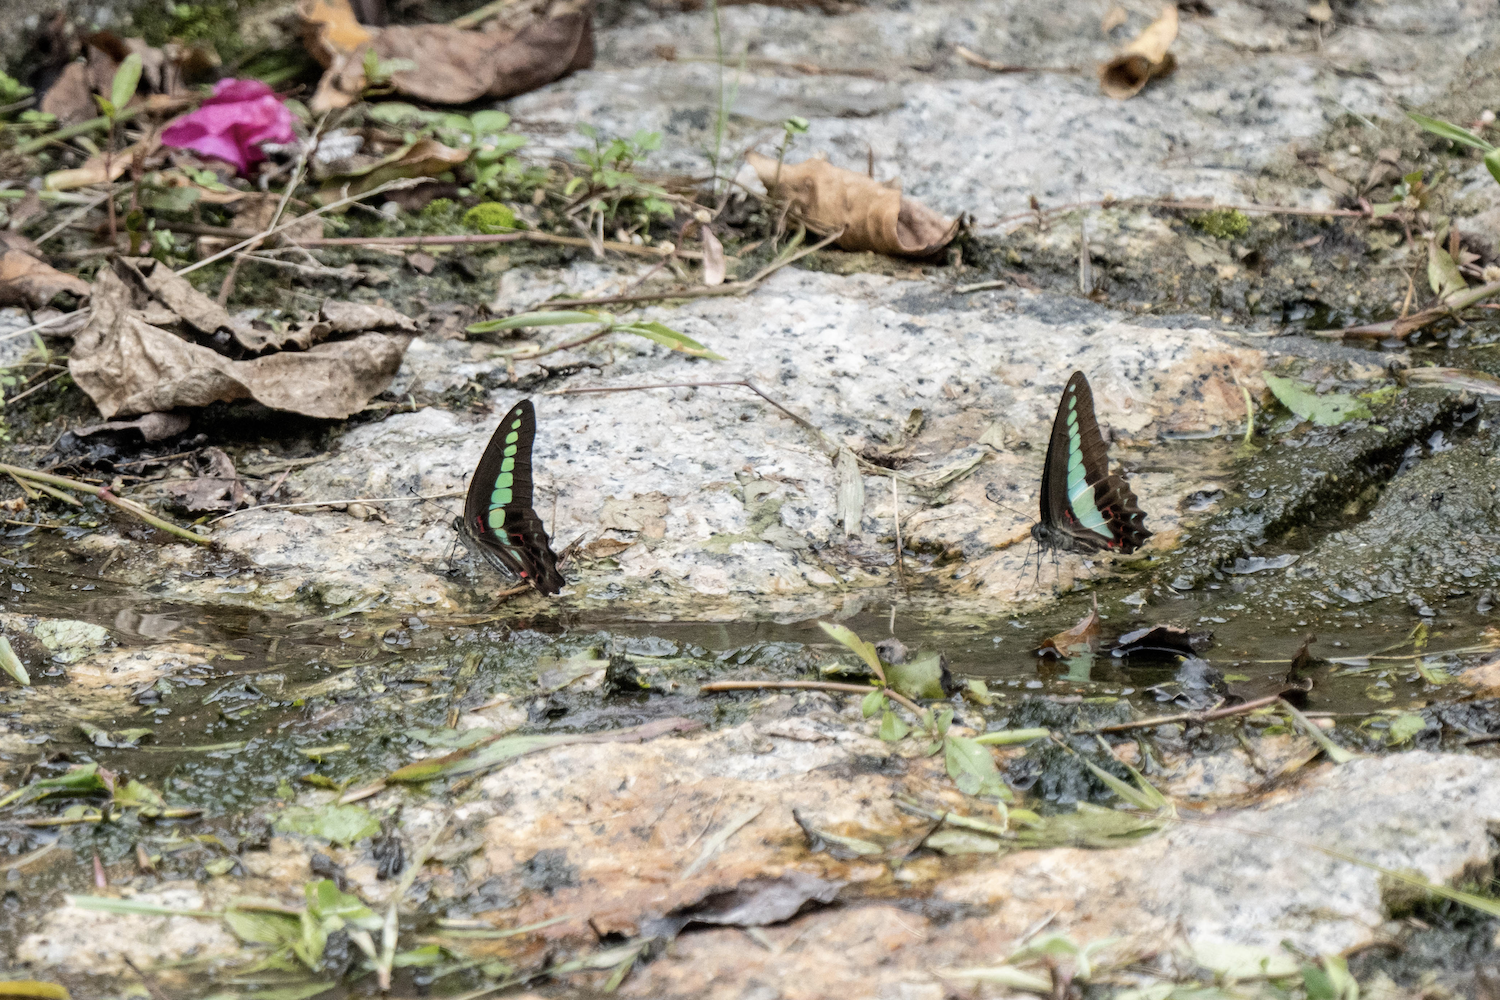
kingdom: Fungi
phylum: Ascomycota
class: Sordariomycetes
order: Microascales
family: Microascaceae
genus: Graphium
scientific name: Graphium sarpedon
